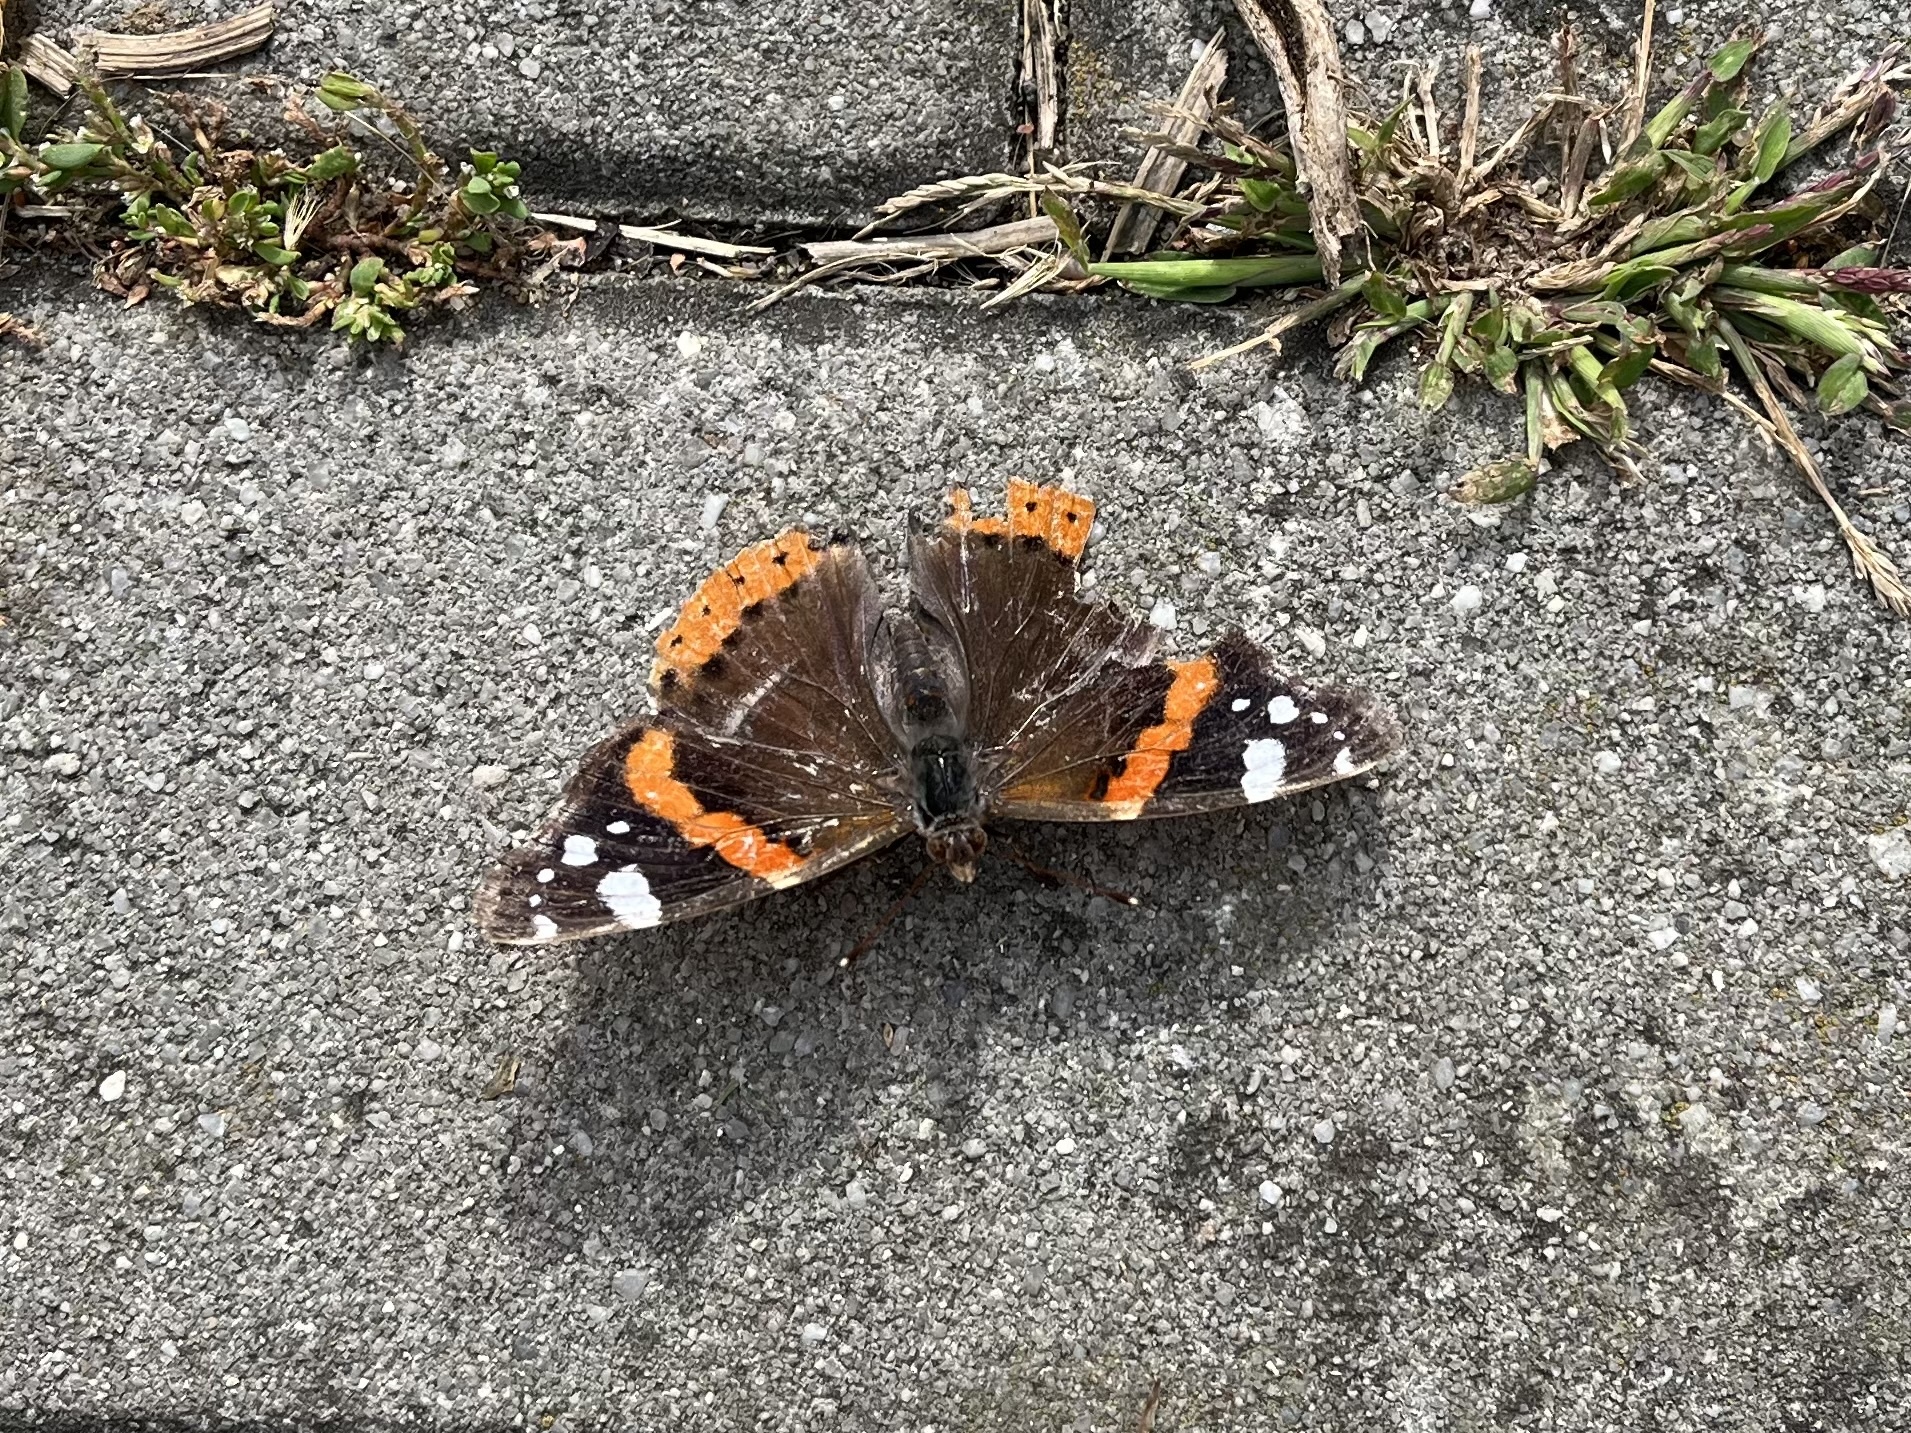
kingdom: Animalia
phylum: Arthropoda
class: Insecta
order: Lepidoptera
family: Nymphalidae
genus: Vanessa
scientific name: Vanessa atalanta
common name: Red admiral
